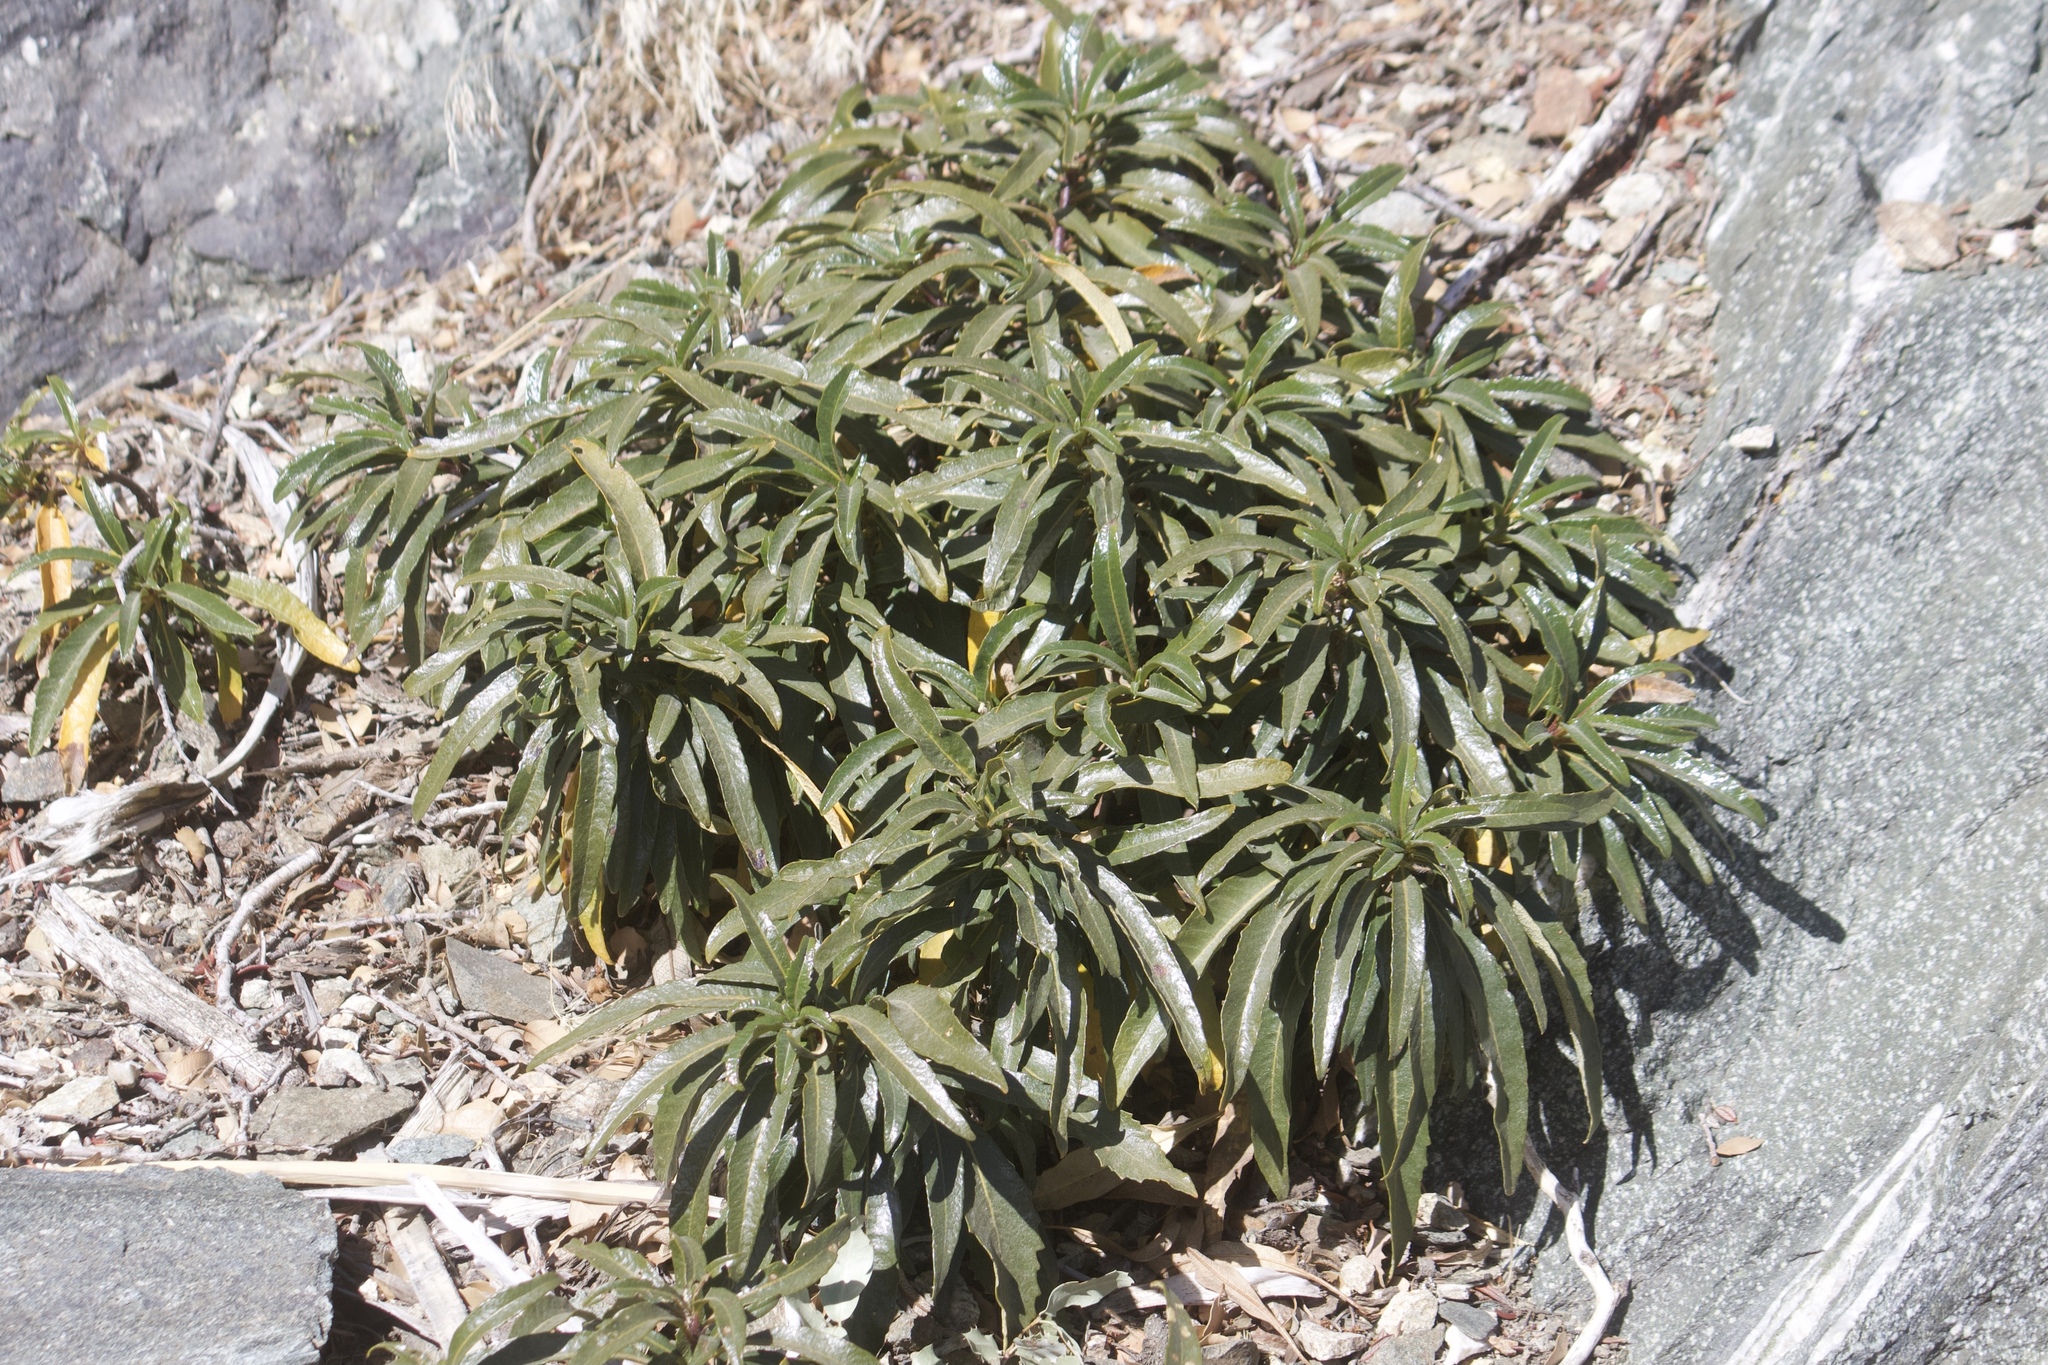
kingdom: Plantae
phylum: Tracheophyta
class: Magnoliopsida
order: Boraginales
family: Namaceae
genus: Eriodictyon
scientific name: Eriodictyon trichocalyx
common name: Hairy yerba-santa
